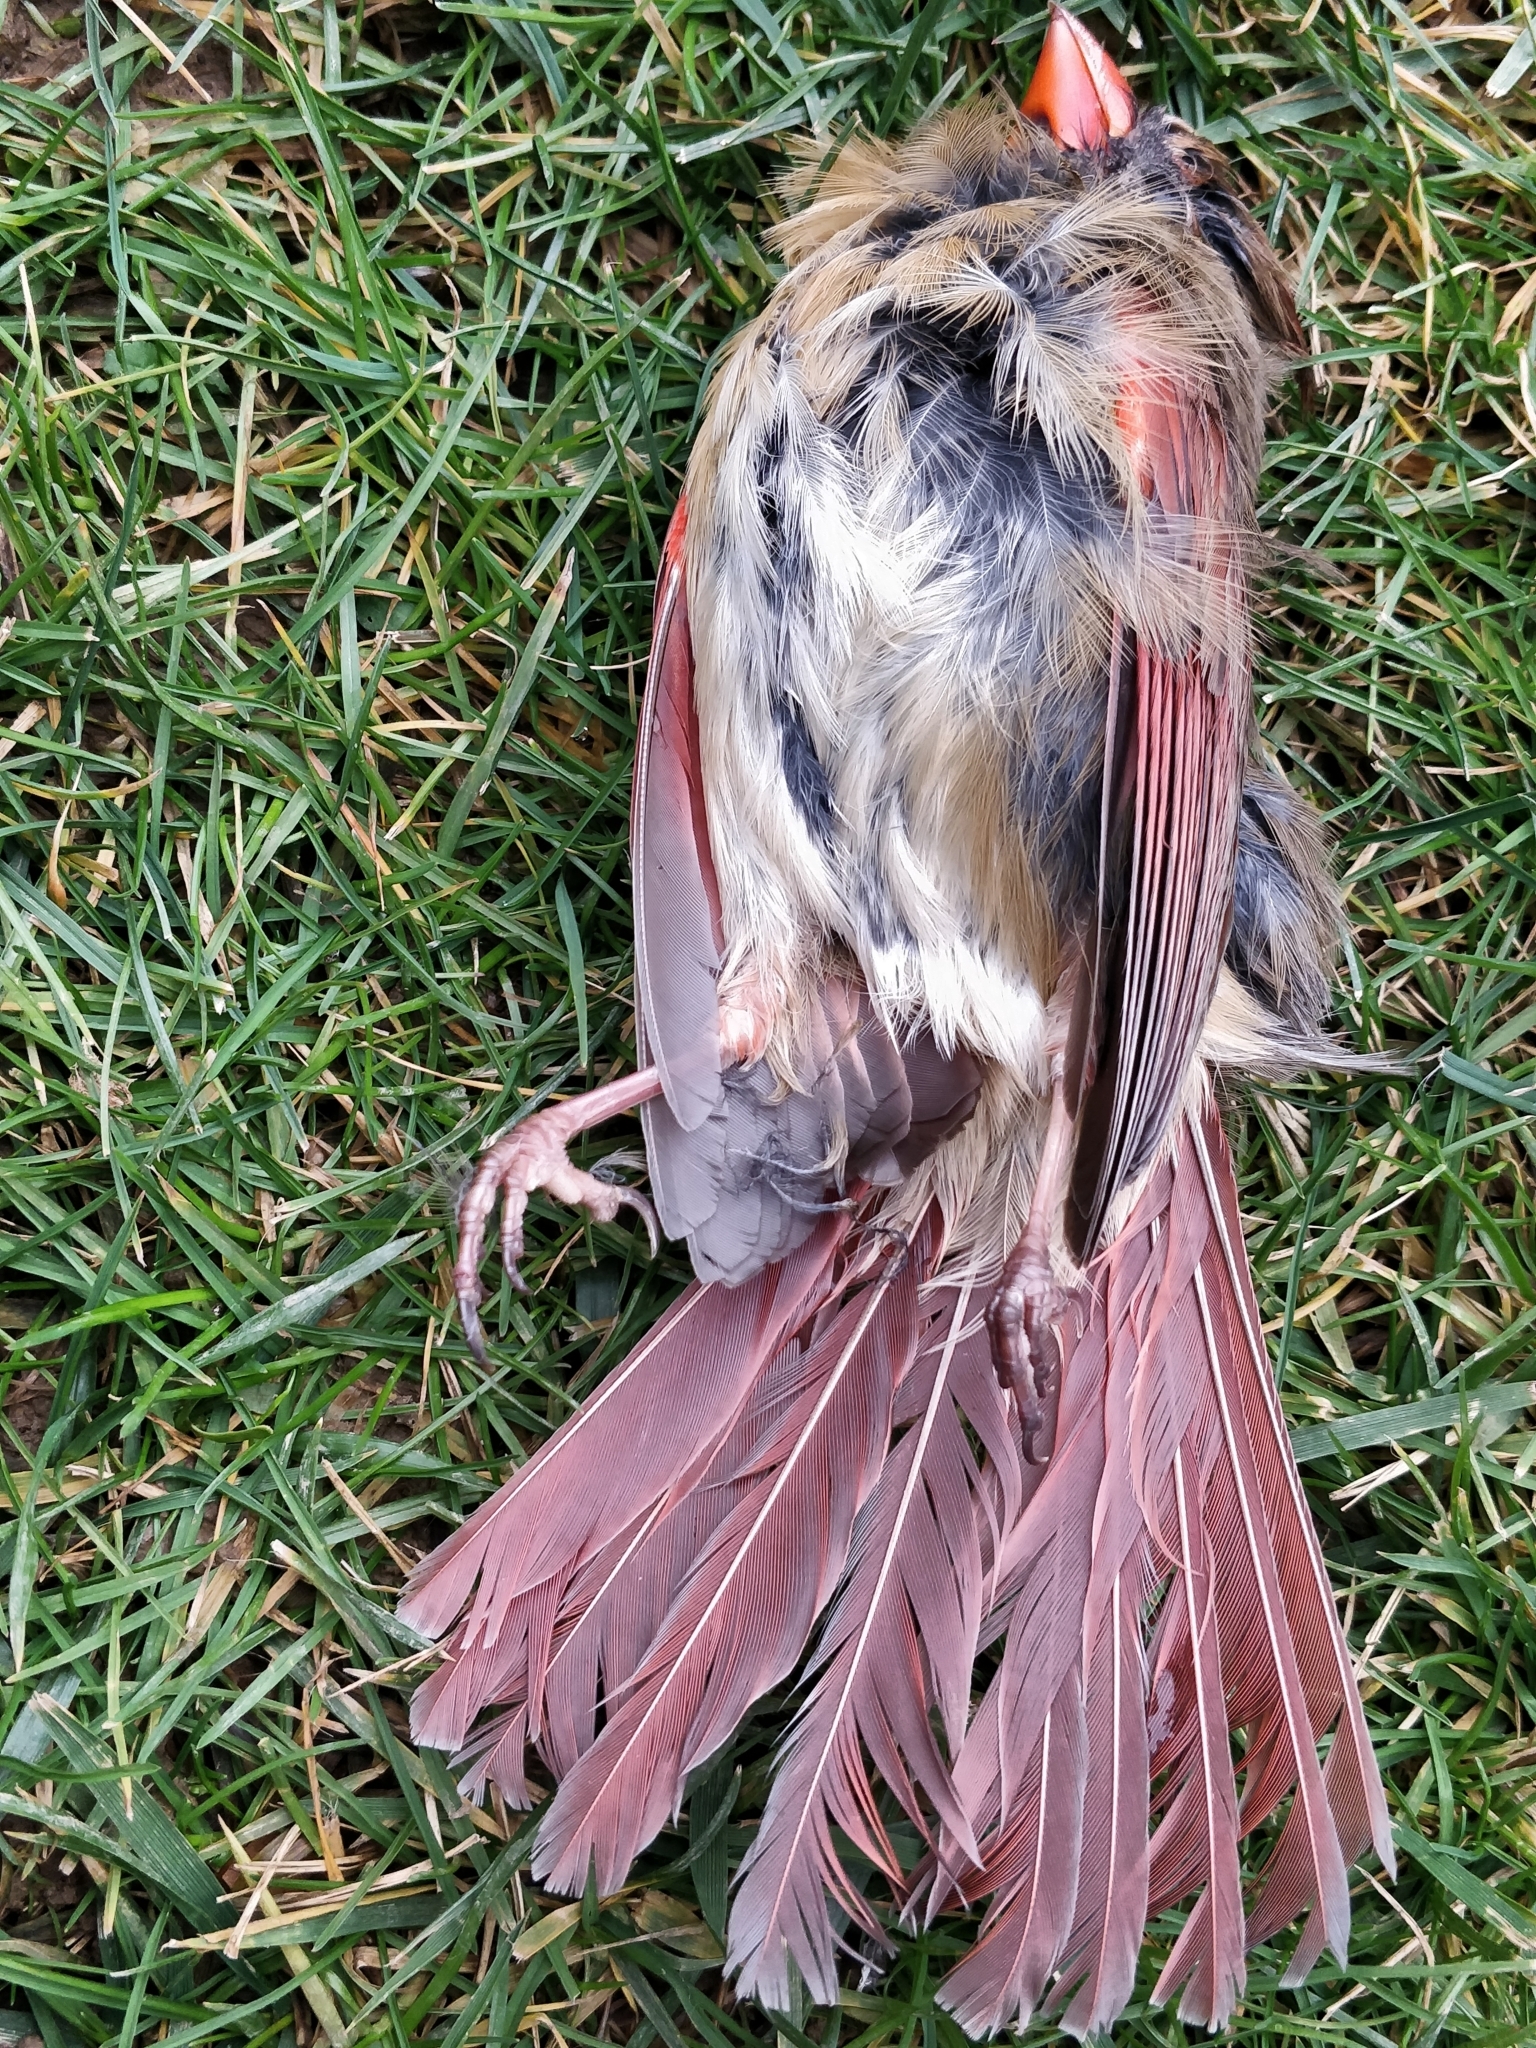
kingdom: Animalia
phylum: Chordata
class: Aves
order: Passeriformes
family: Cardinalidae
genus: Cardinalis
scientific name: Cardinalis cardinalis
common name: Northern cardinal
